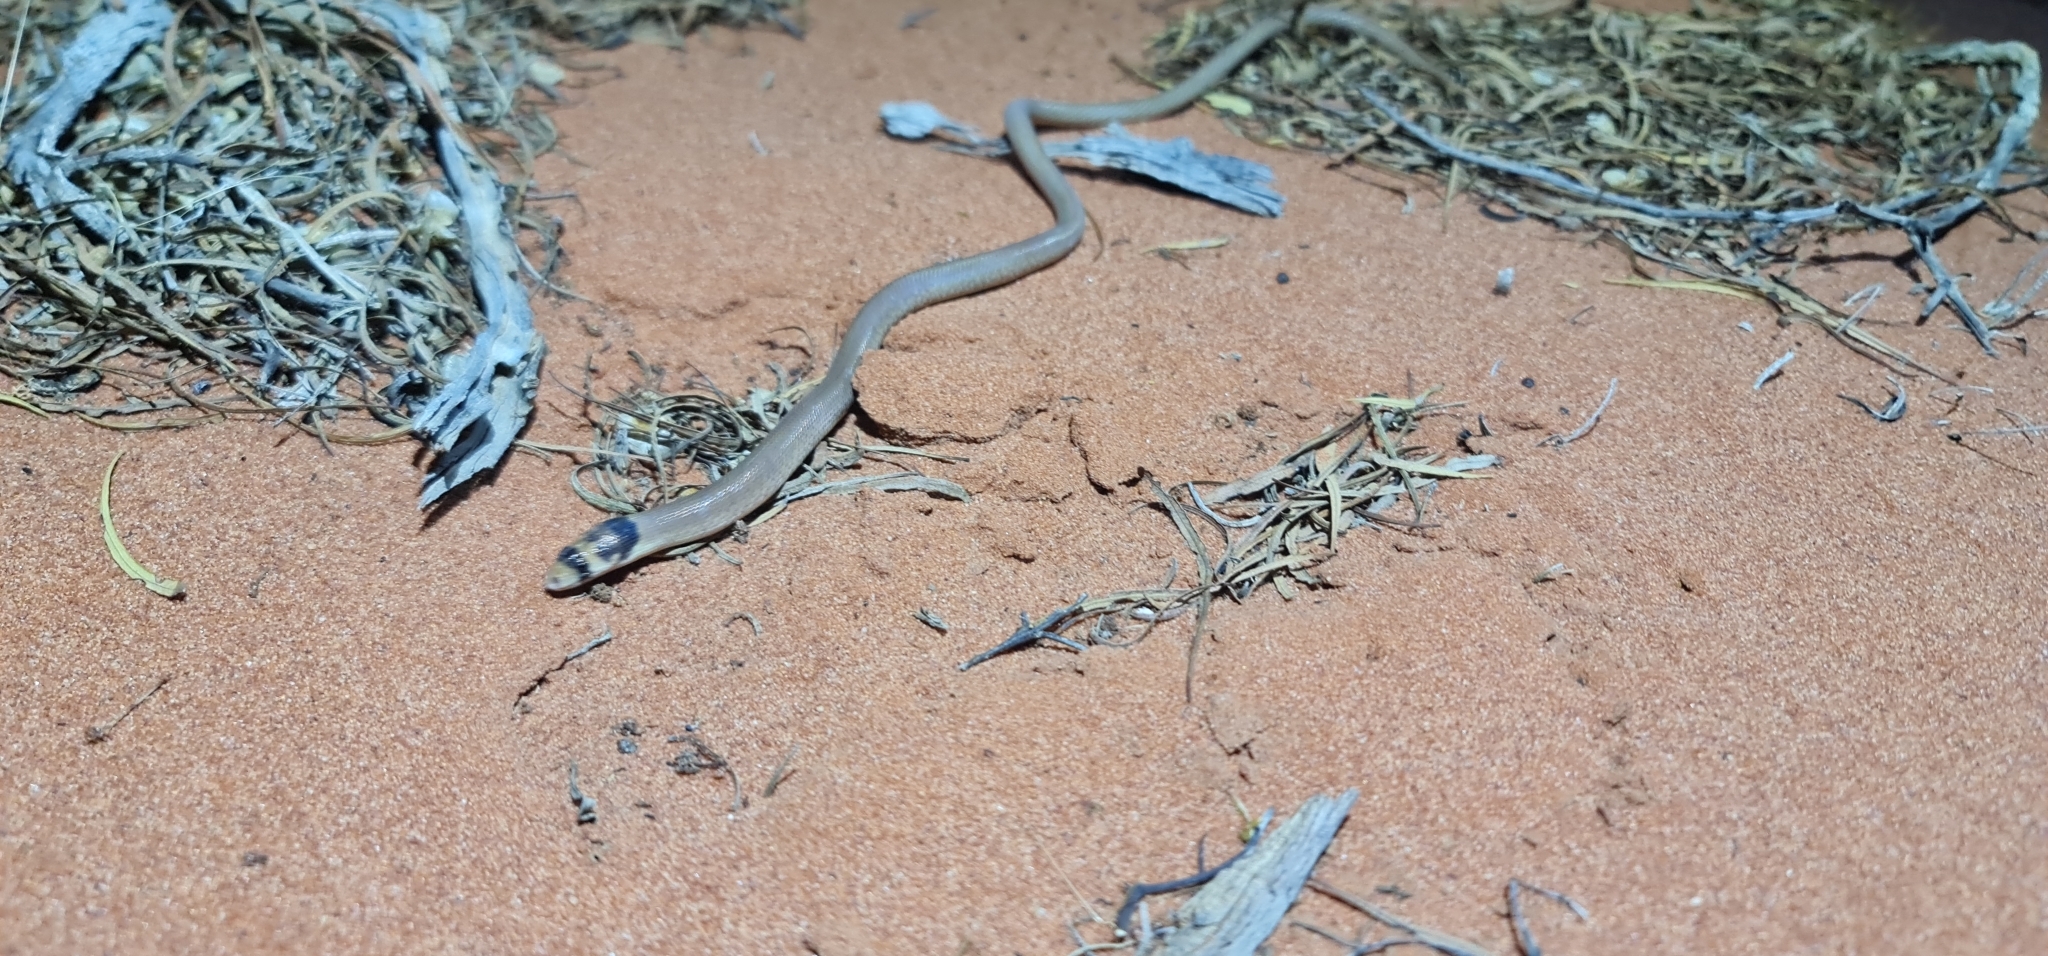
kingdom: Animalia
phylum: Chordata
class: Squamata
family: Pygopodidae
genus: Pygopus
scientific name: Pygopus nigriceps
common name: Black-headed scaly foot
